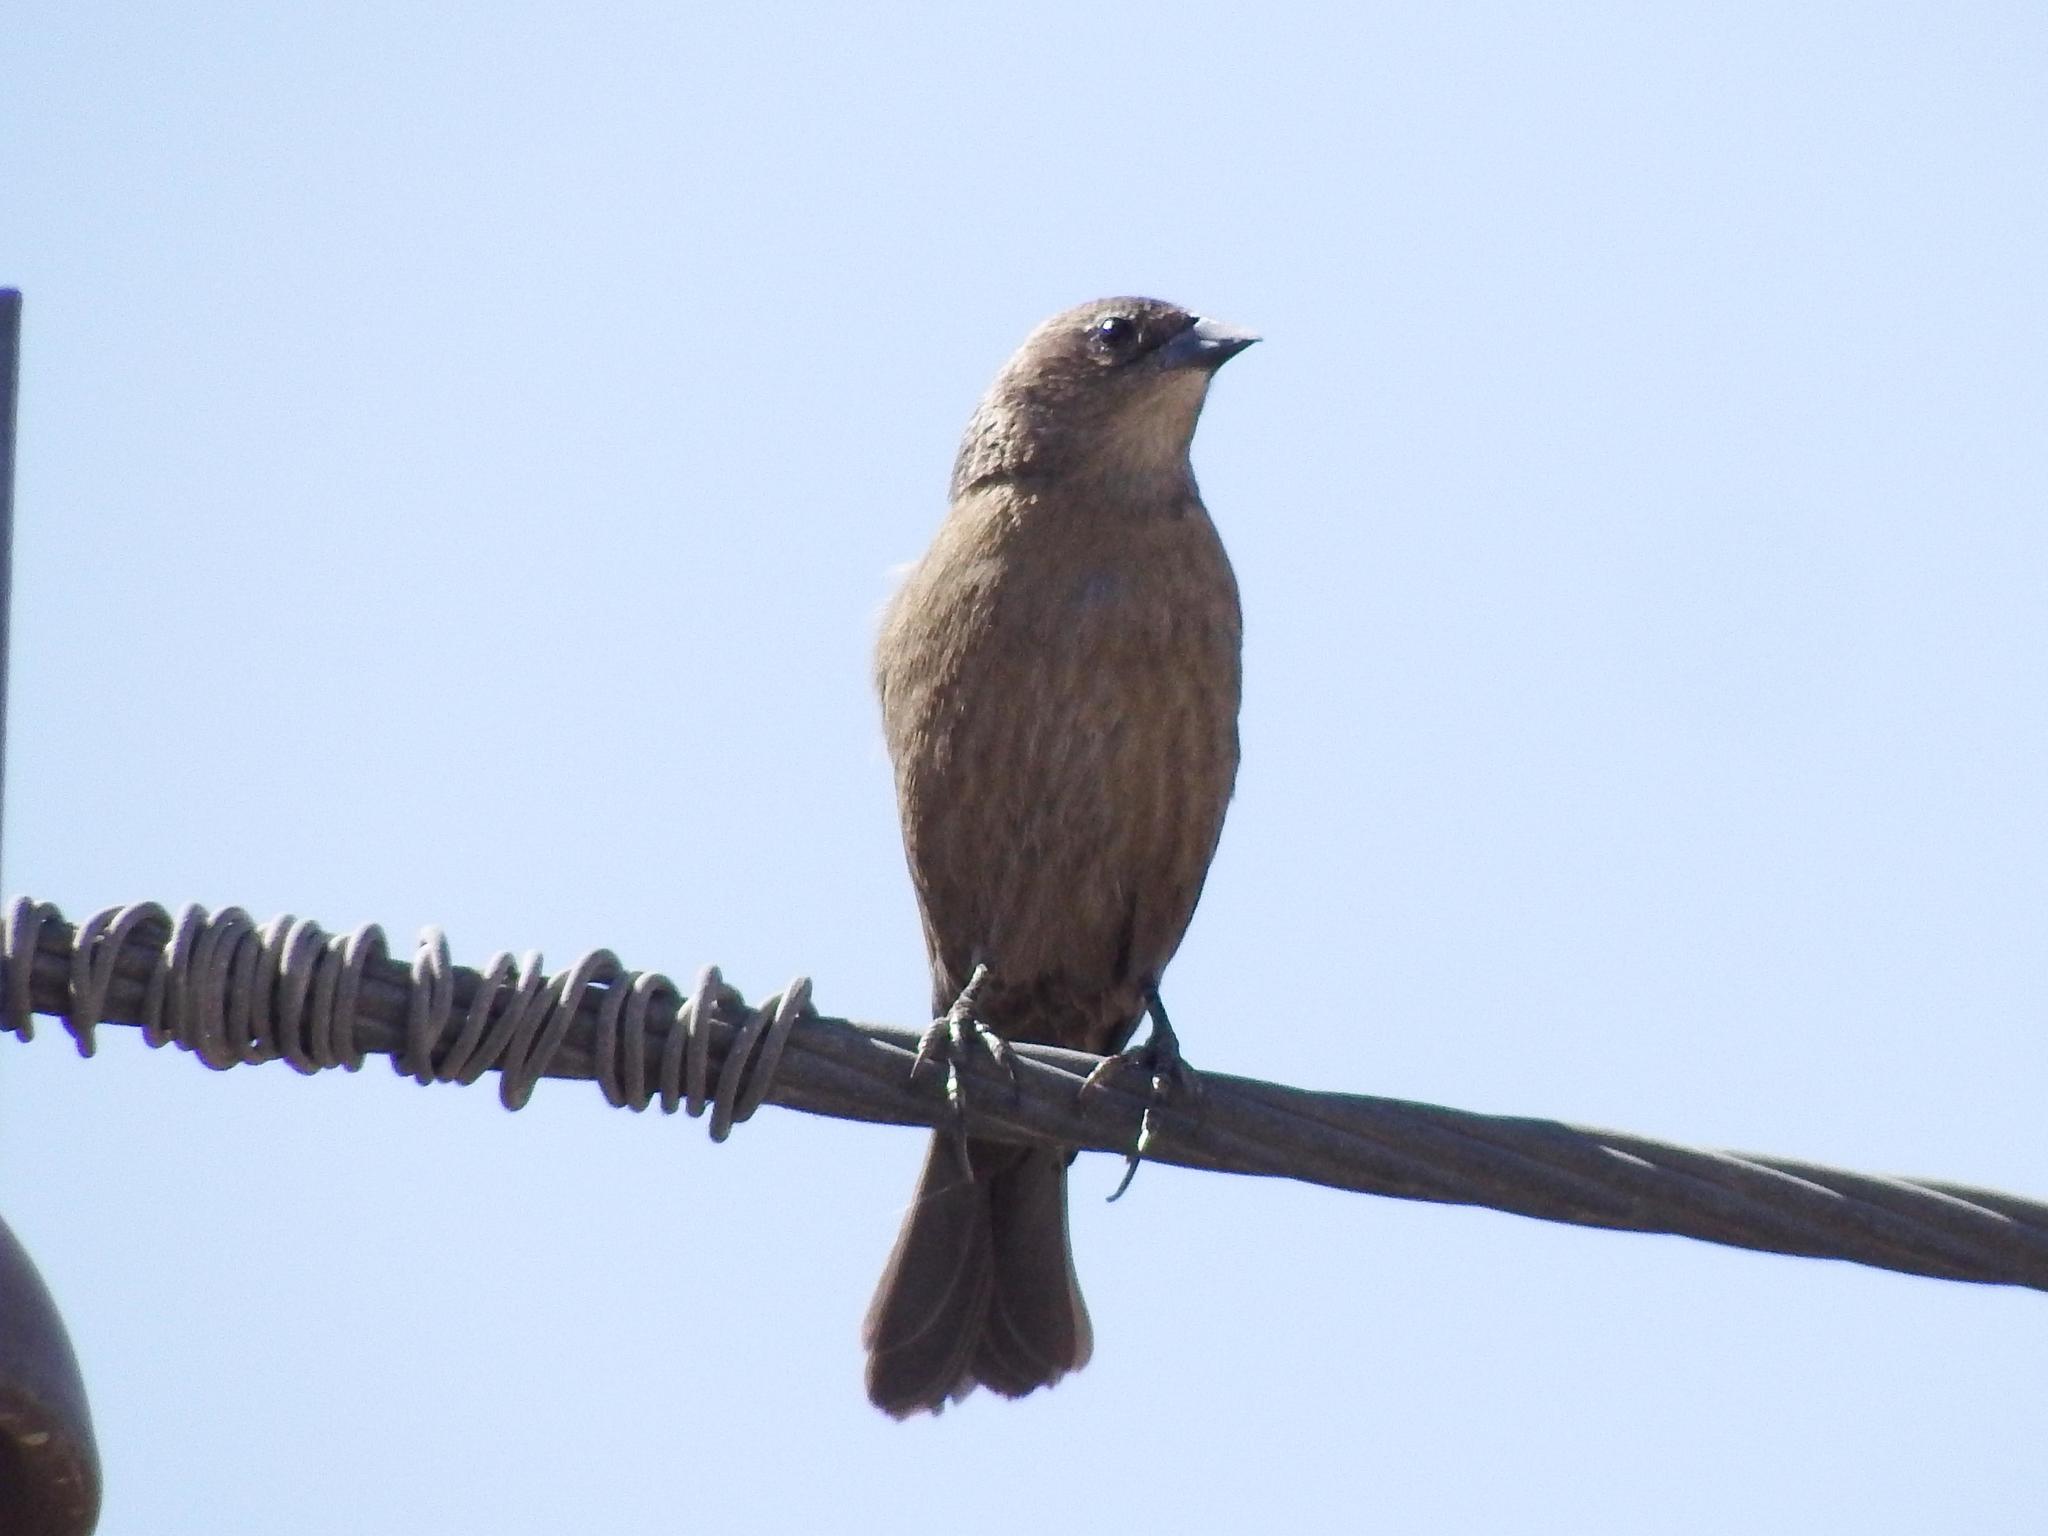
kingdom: Animalia
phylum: Chordata
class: Aves
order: Passeriformes
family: Icteridae
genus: Molothrus
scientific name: Molothrus bonariensis
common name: Shiny cowbird
